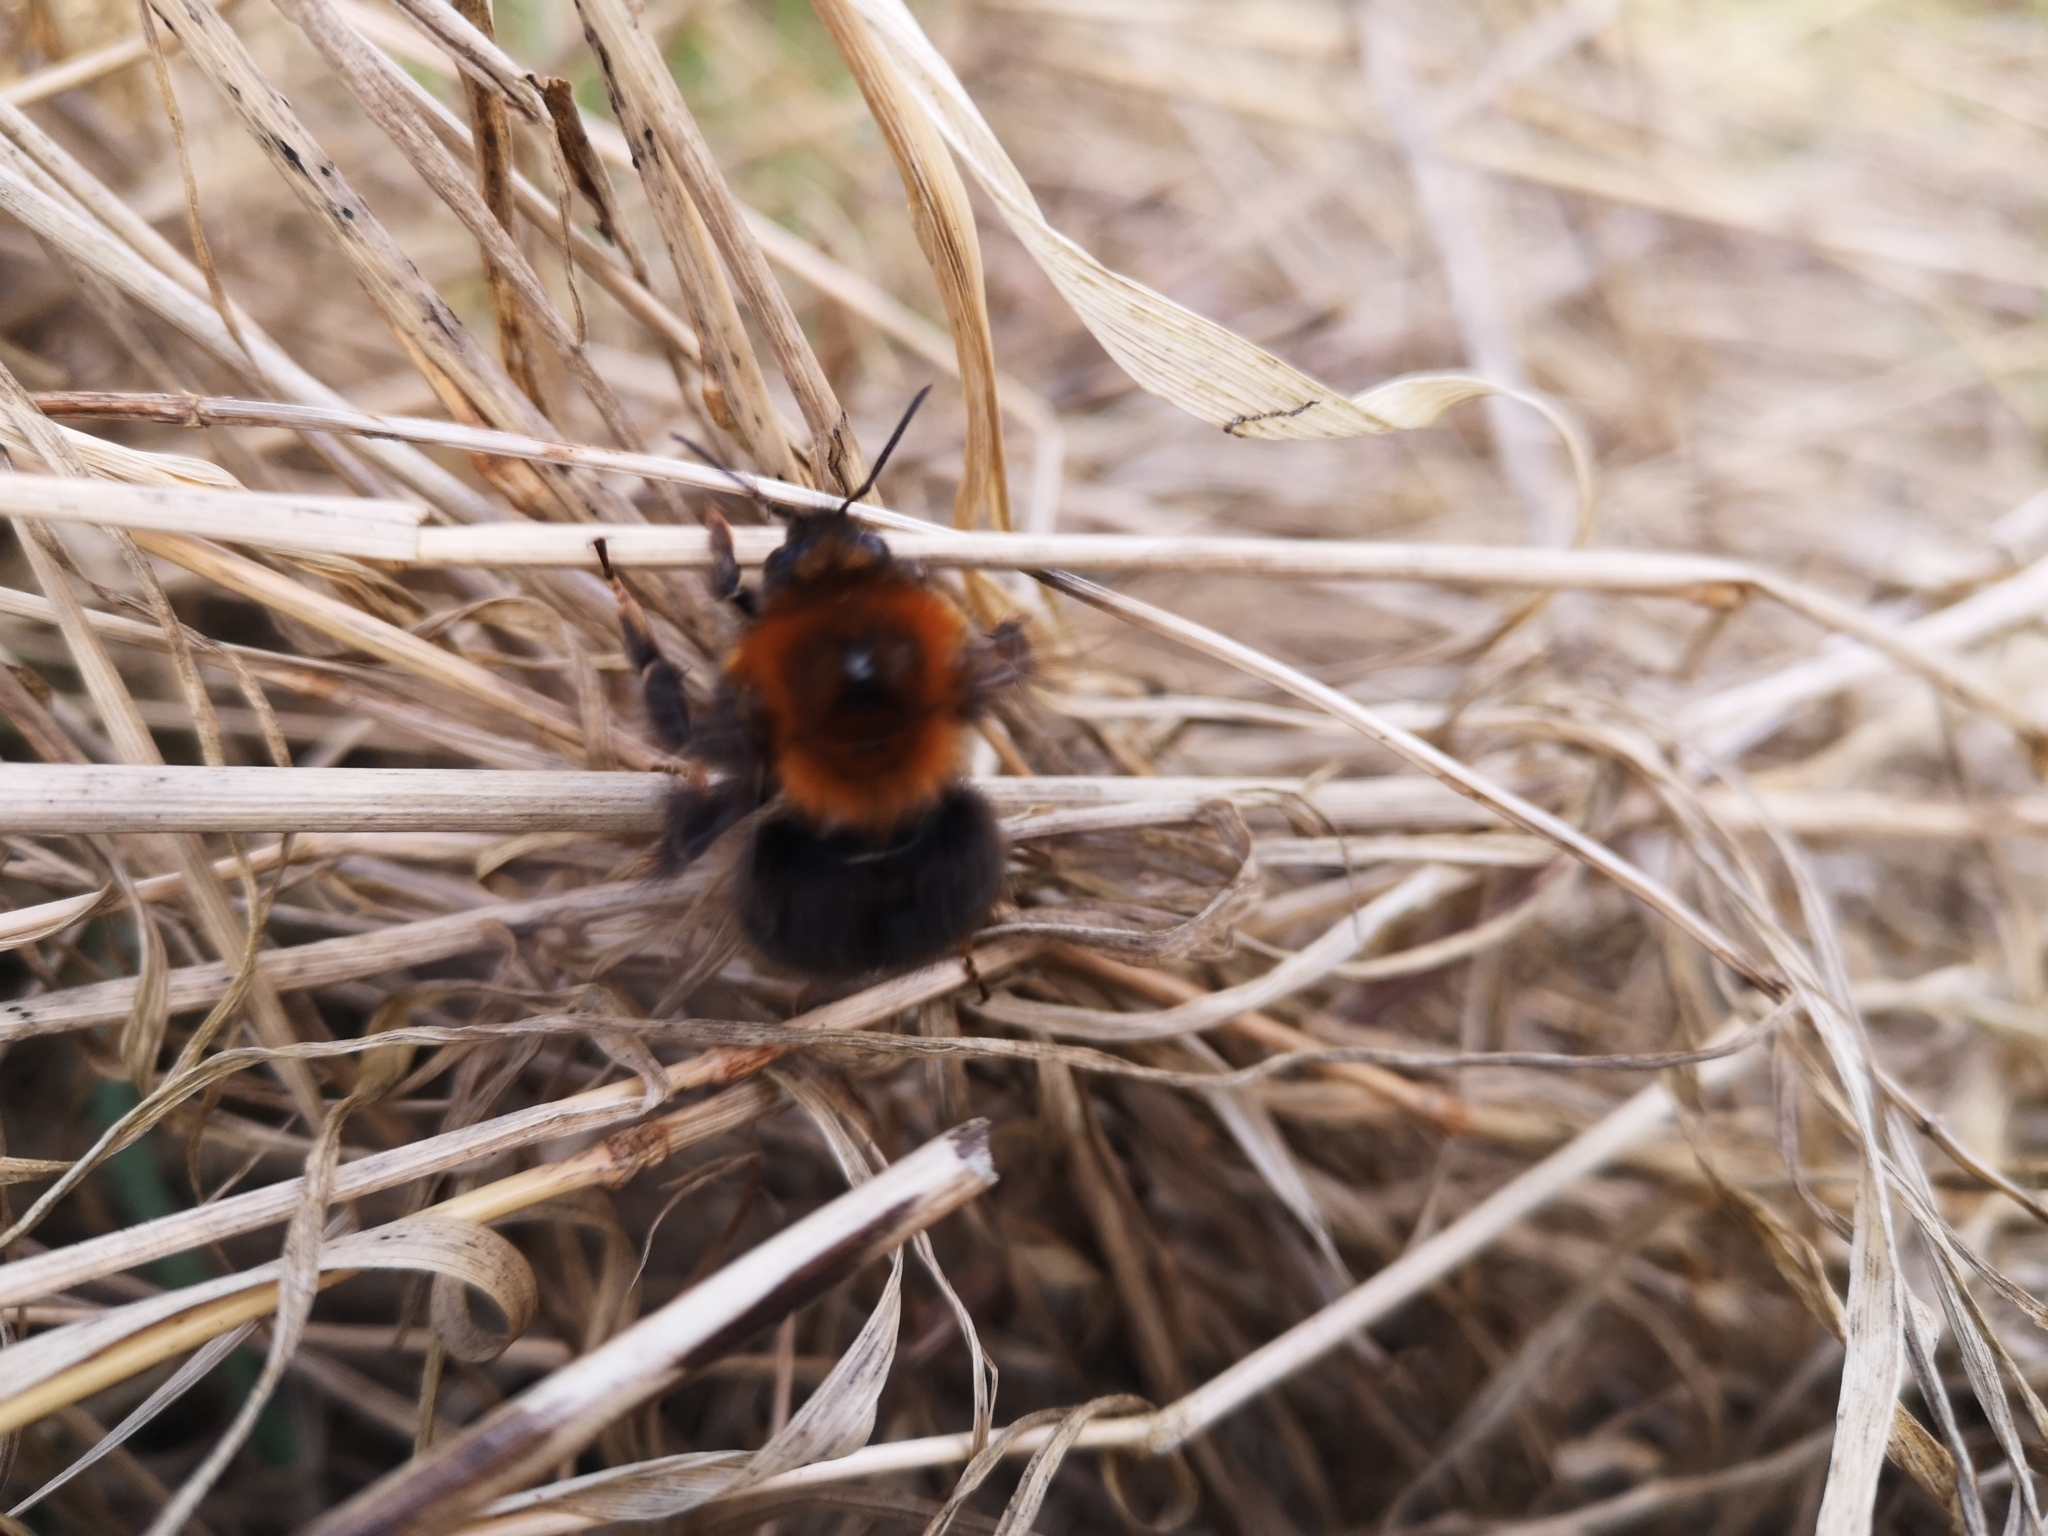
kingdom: Animalia
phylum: Arthropoda
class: Insecta
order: Hymenoptera
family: Apidae
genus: Bombus
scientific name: Bombus hypnorum
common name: New garden bumblebee
